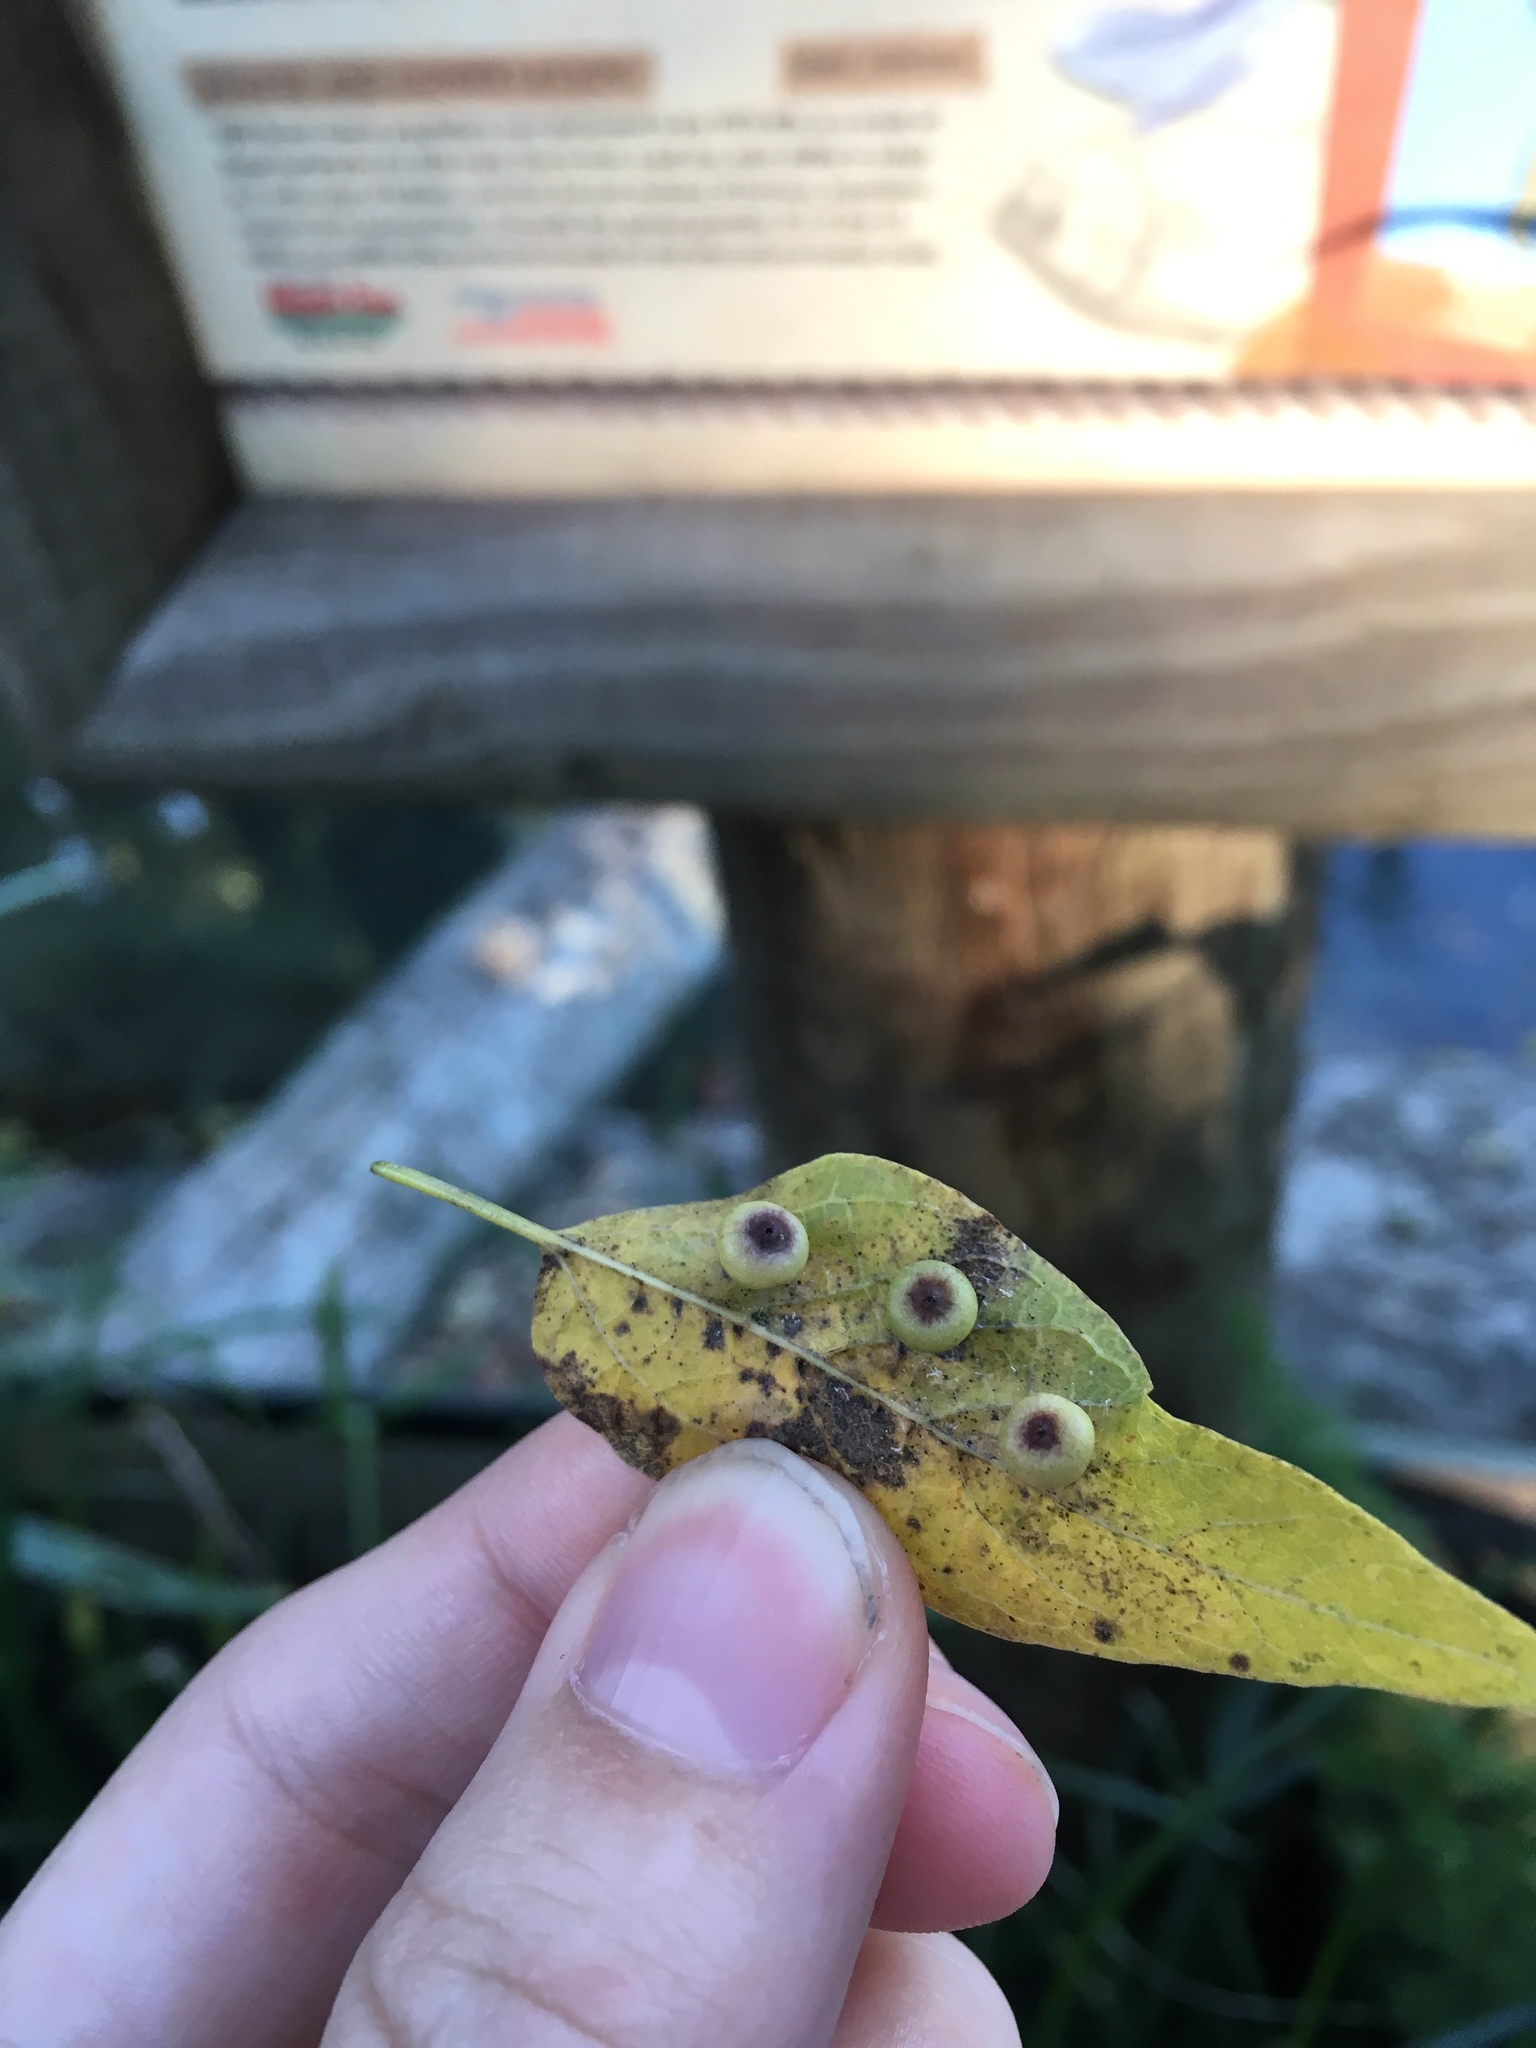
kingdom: Animalia
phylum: Arthropoda
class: Insecta
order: Hemiptera
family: Aphalaridae
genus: Pachypsylla
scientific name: Pachypsylla celtidismamma
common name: Hackberry nipplegall psyllid
